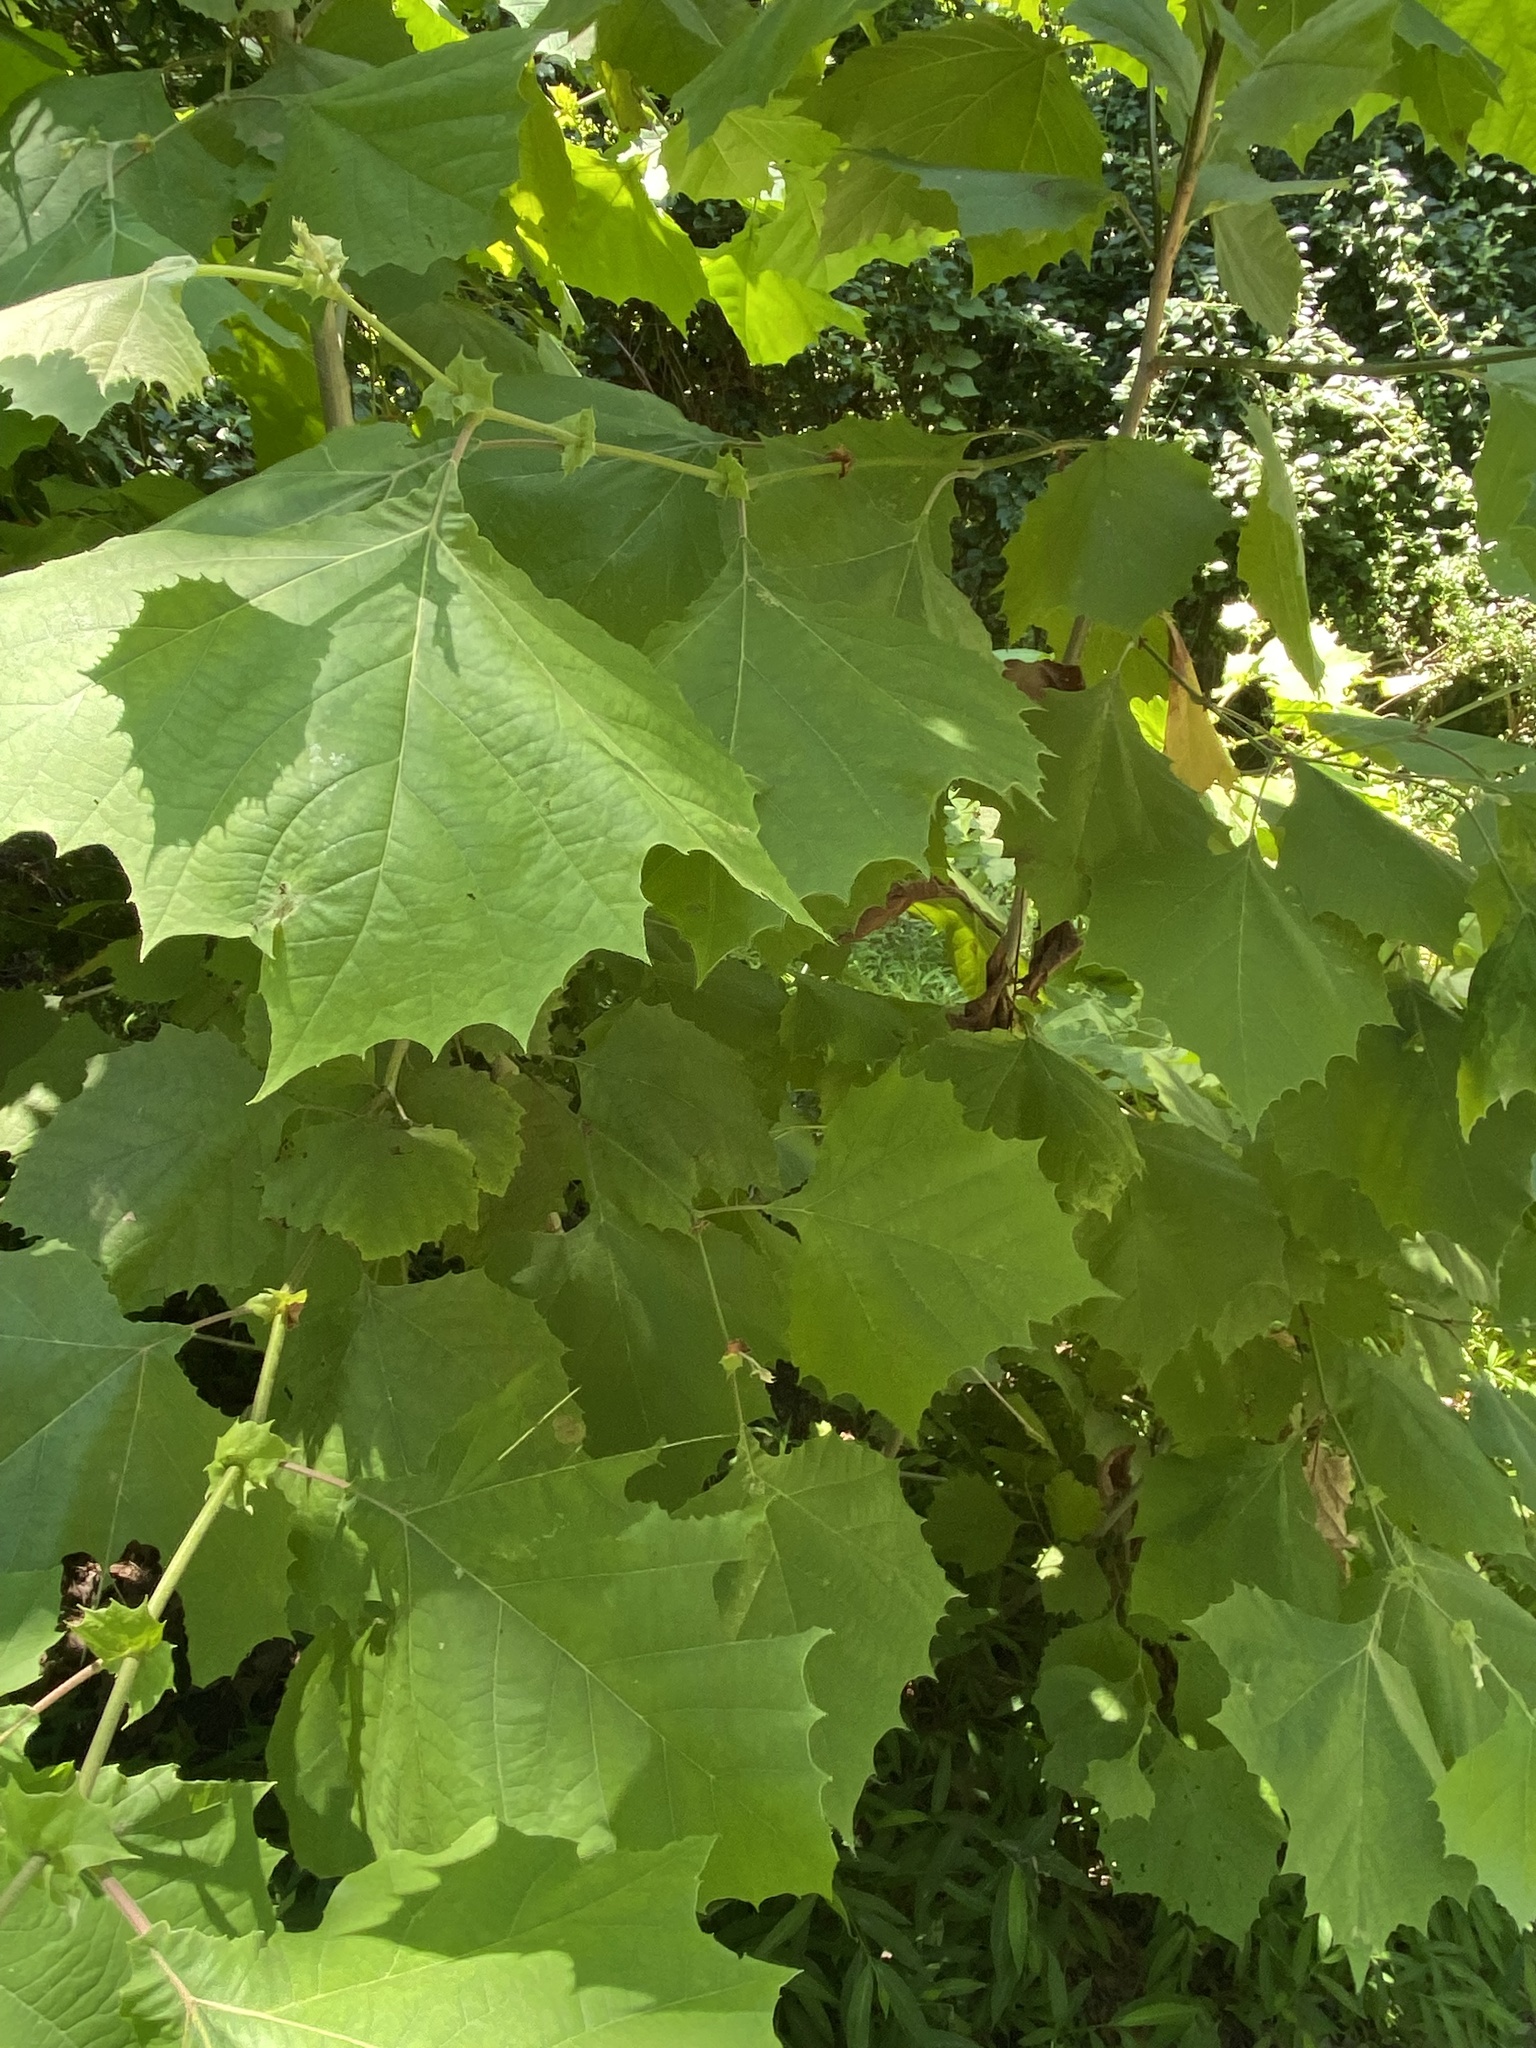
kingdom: Plantae
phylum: Tracheophyta
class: Magnoliopsida
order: Proteales
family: Platanaceae
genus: Platanus
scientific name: Platanus occidentalis
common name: American sycamore
